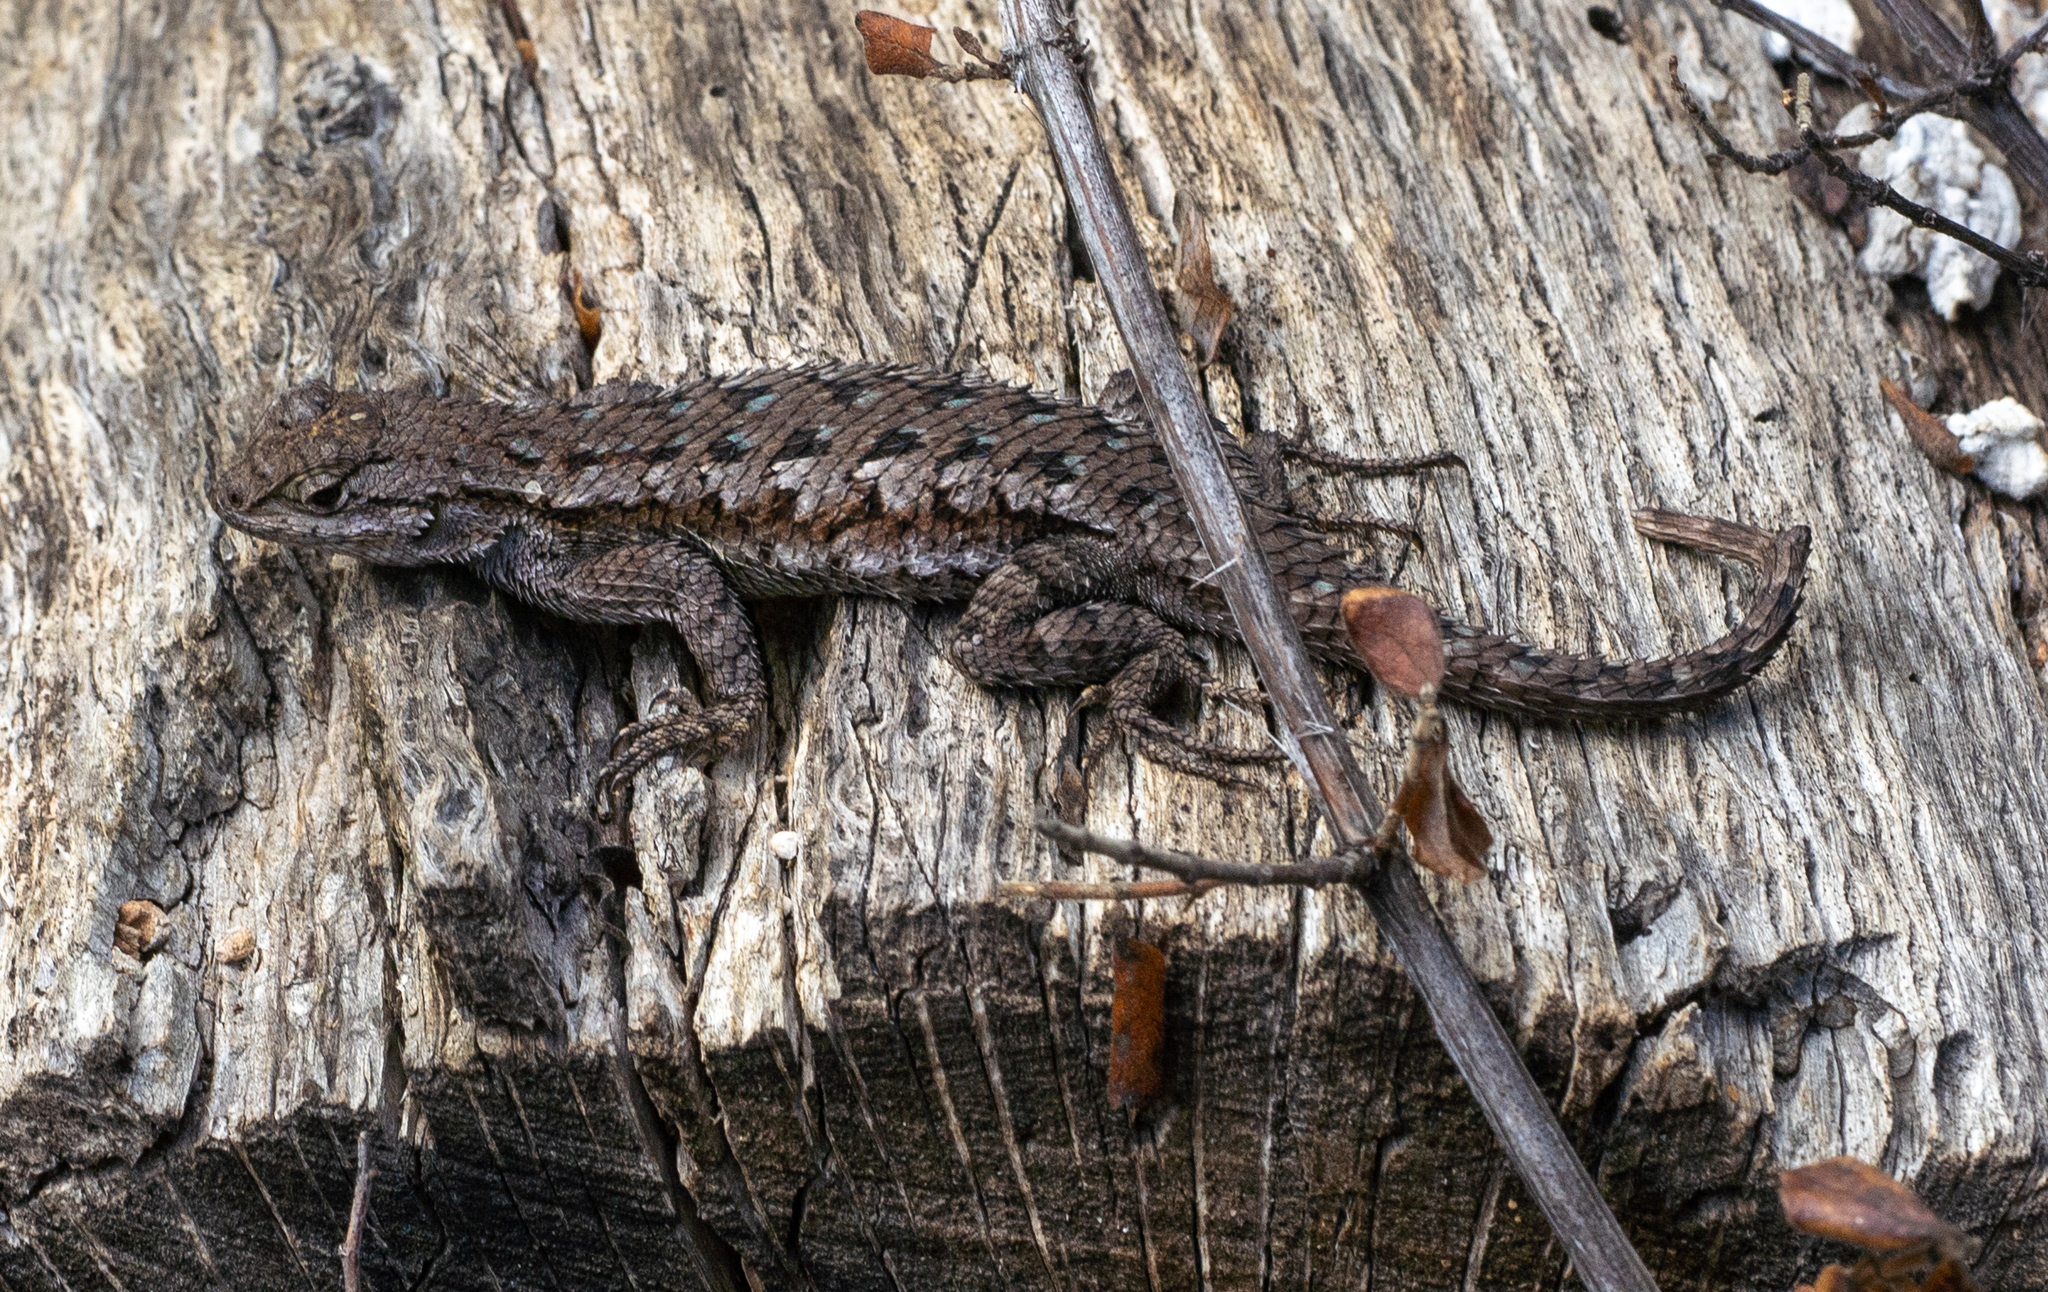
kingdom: Animalia
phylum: Chordata
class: Squamata
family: Phrynosomatidae
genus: Sceloporus
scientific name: Sceloporus occidentalis
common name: Western fence lizard
